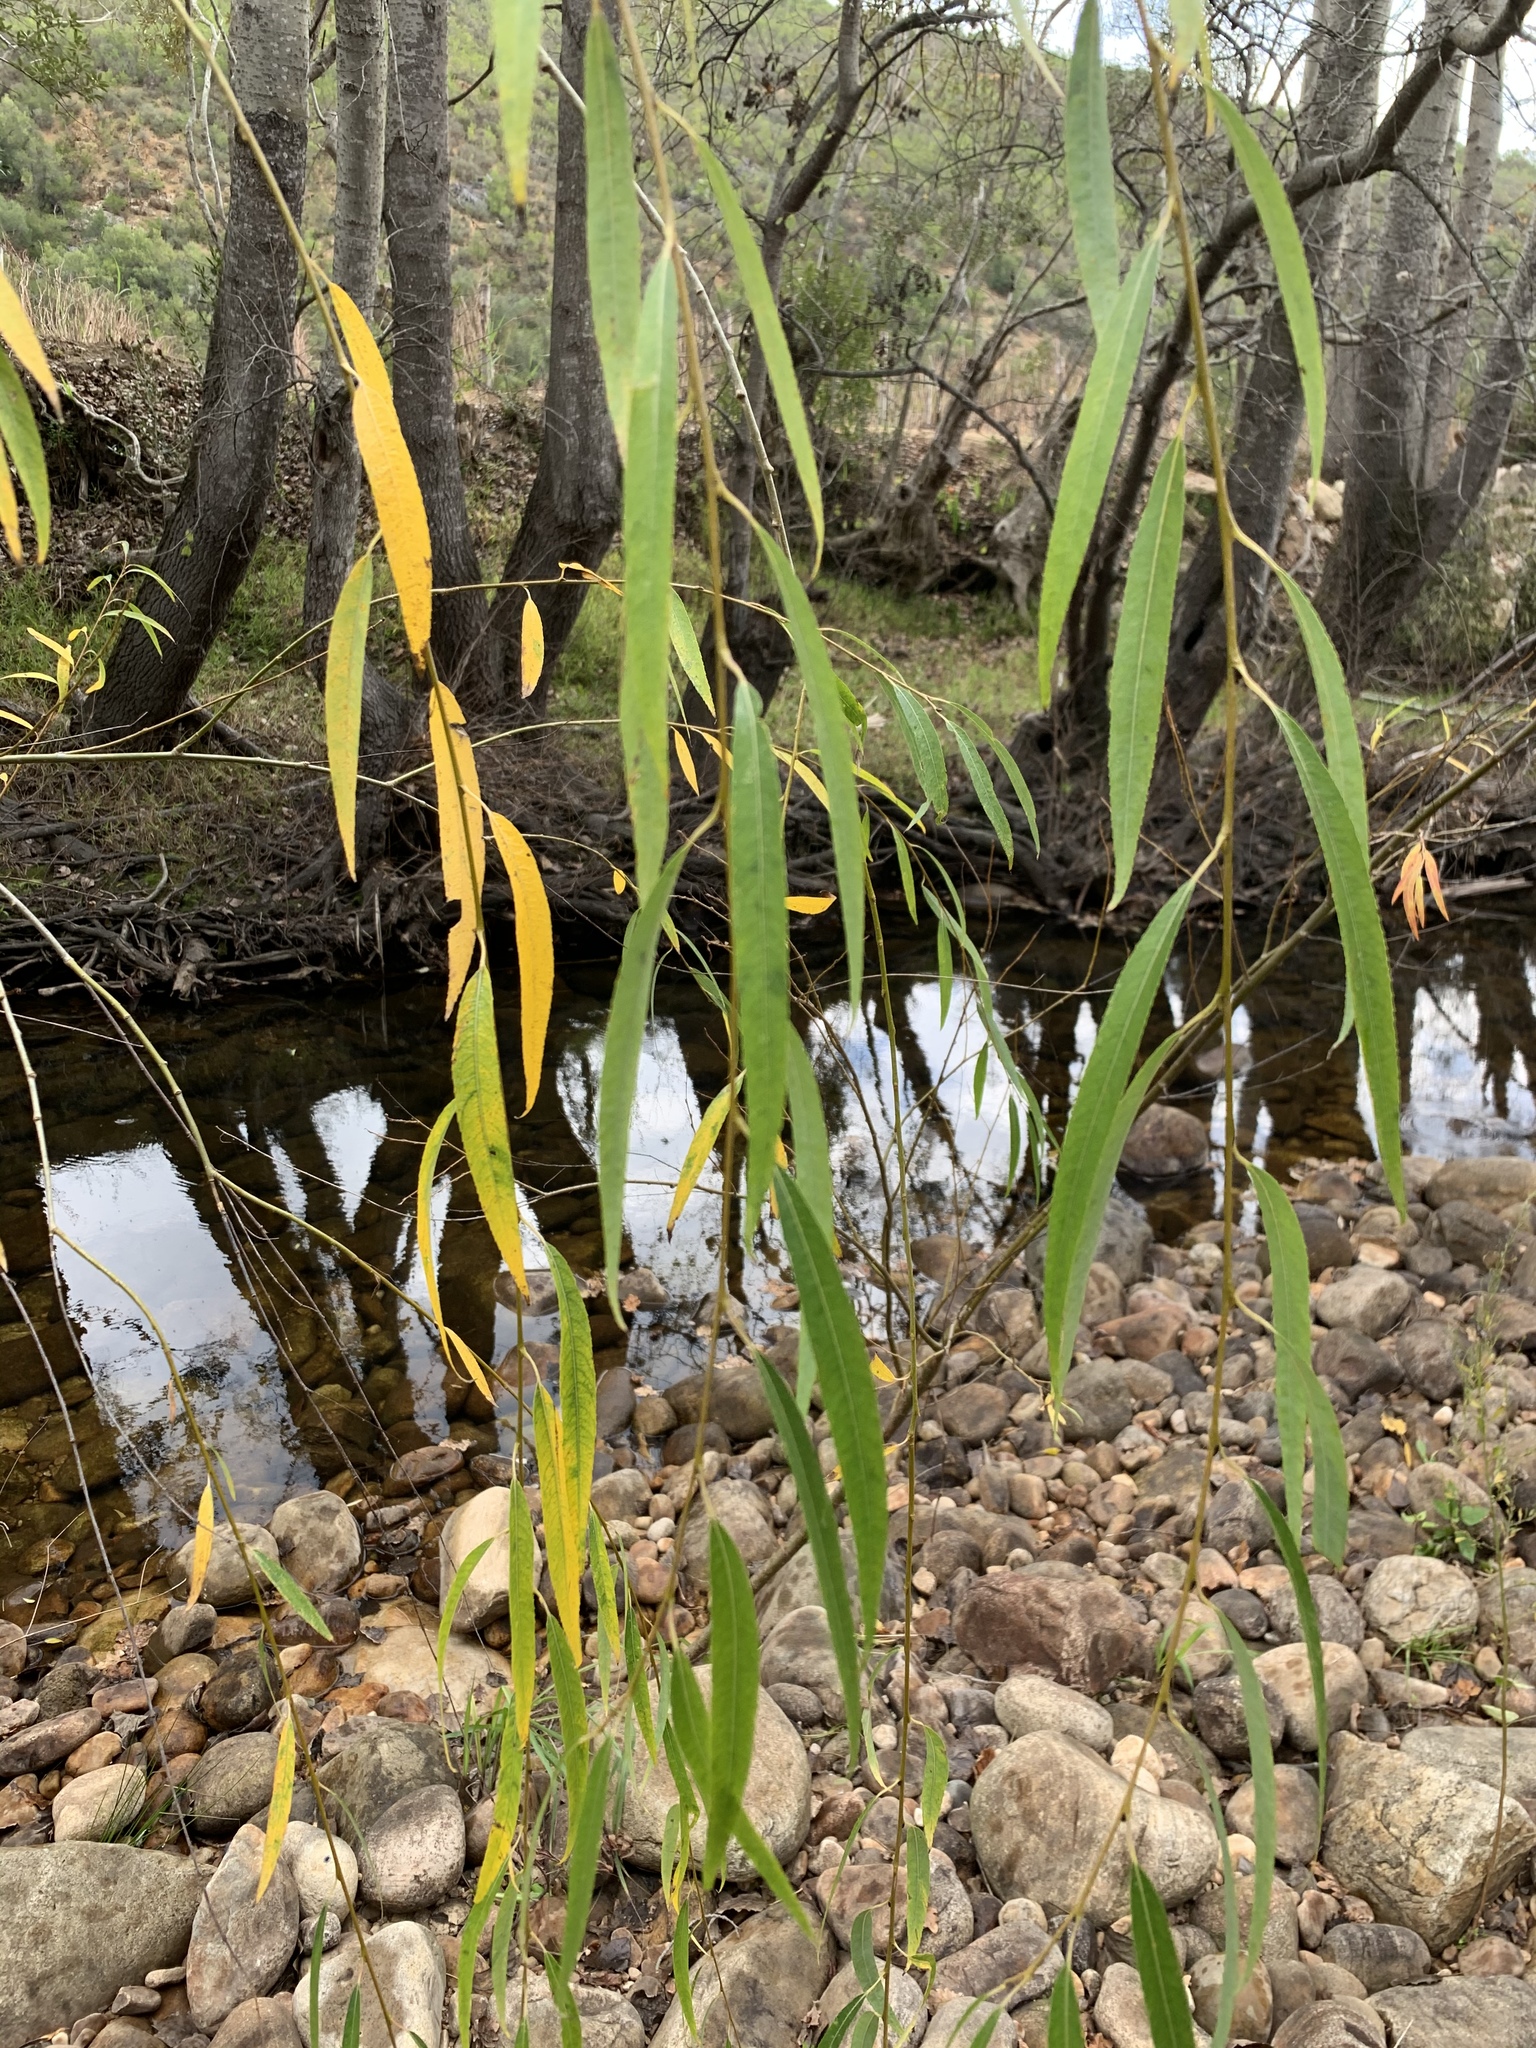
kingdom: Plantae
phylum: Tracheophyta
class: Magnoliopsida
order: Malpighiales
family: Salicaceae
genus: Salix
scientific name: Salix babylonica
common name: Weeping willow
